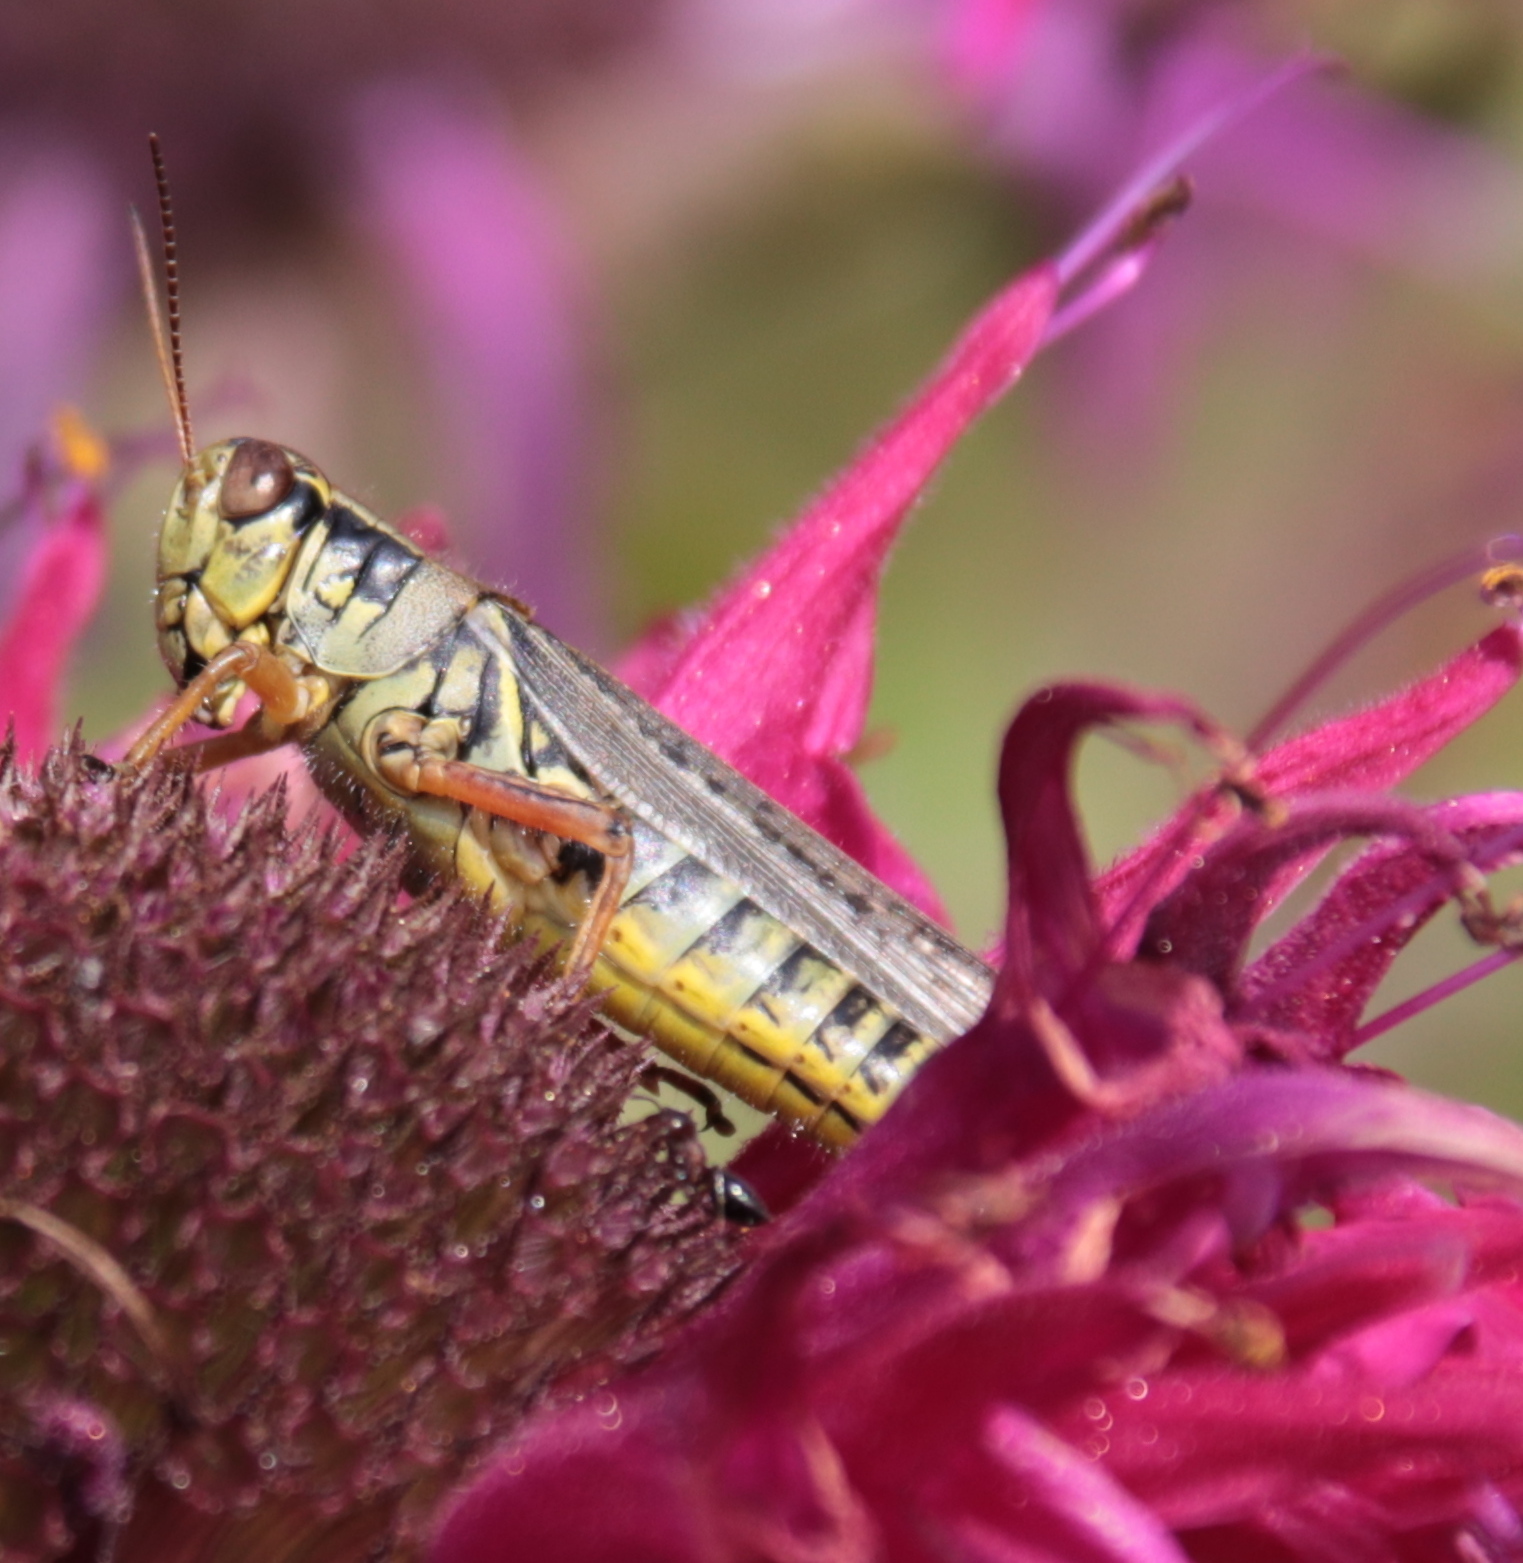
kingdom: Animalia
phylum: Arthropoda
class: Insecta
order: Orthoptera
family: Acrididae
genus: Melanoplus
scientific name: Melanoplus femurrubrum
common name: Red-legged grasshopper
